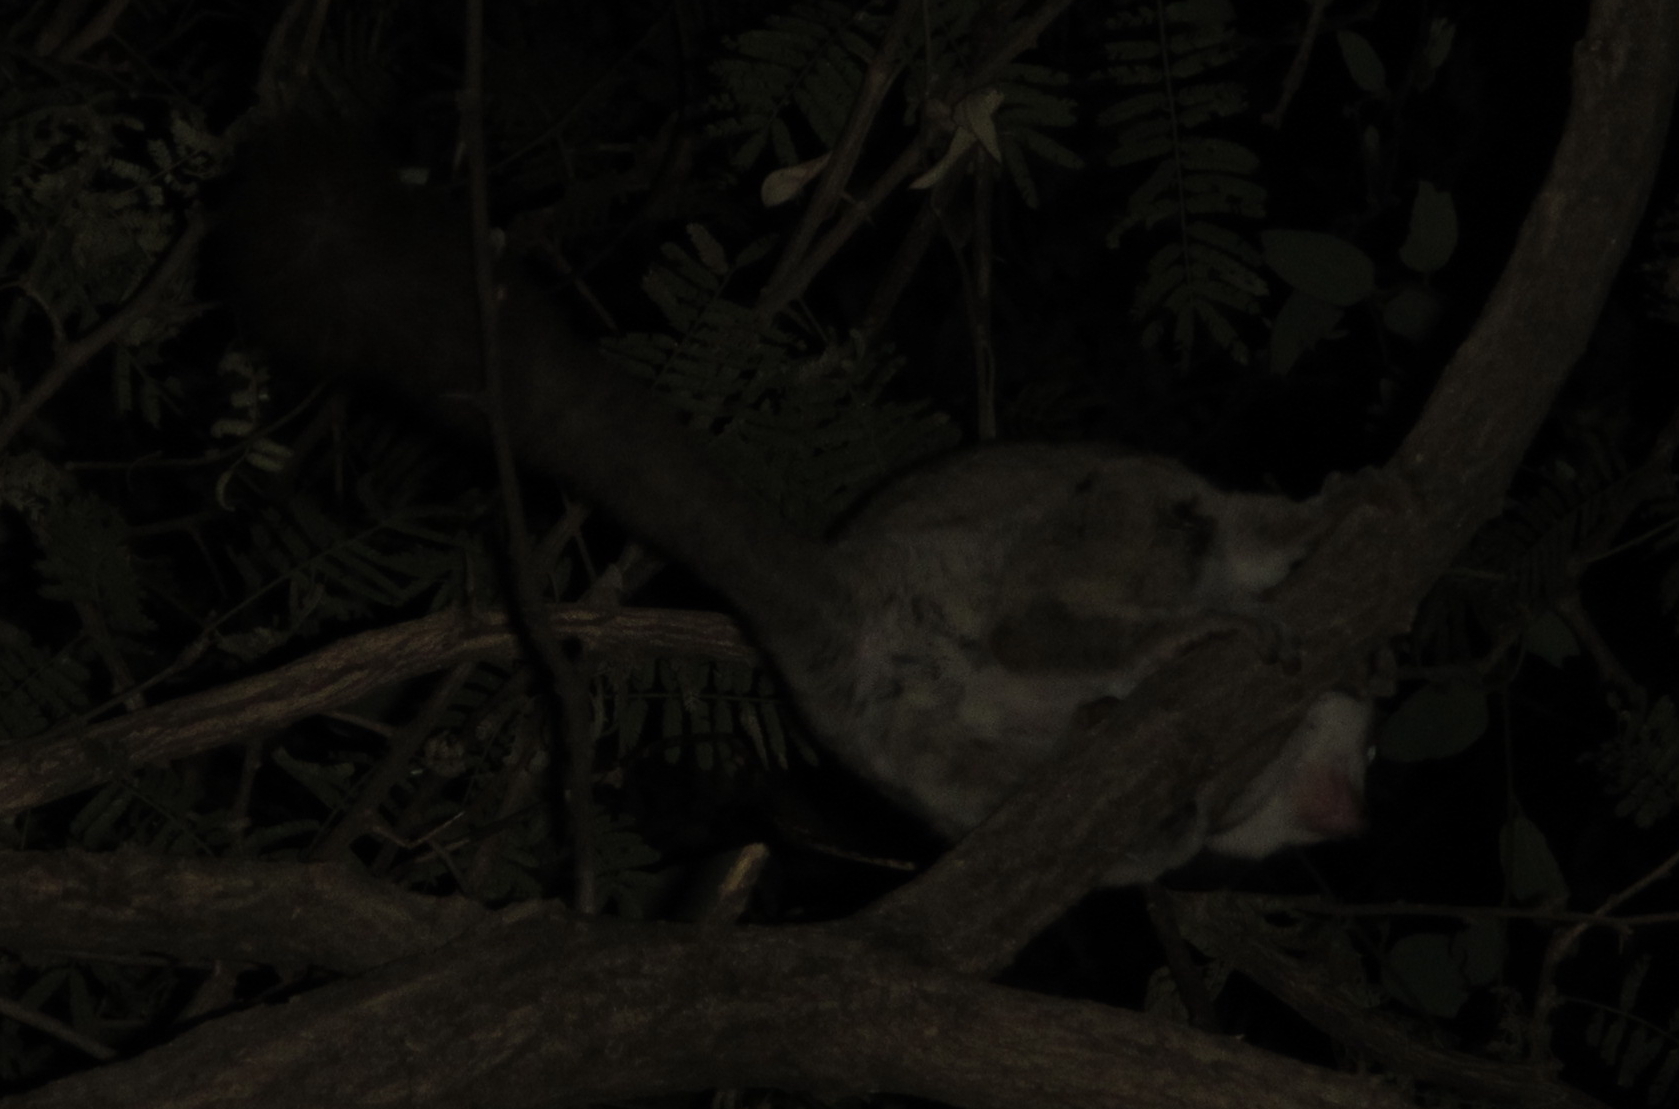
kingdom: Animalia
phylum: Chordata
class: Mammalia
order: Primates
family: Galagidae
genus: Galago
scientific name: Galago moholi
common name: Moholi bushbaby
